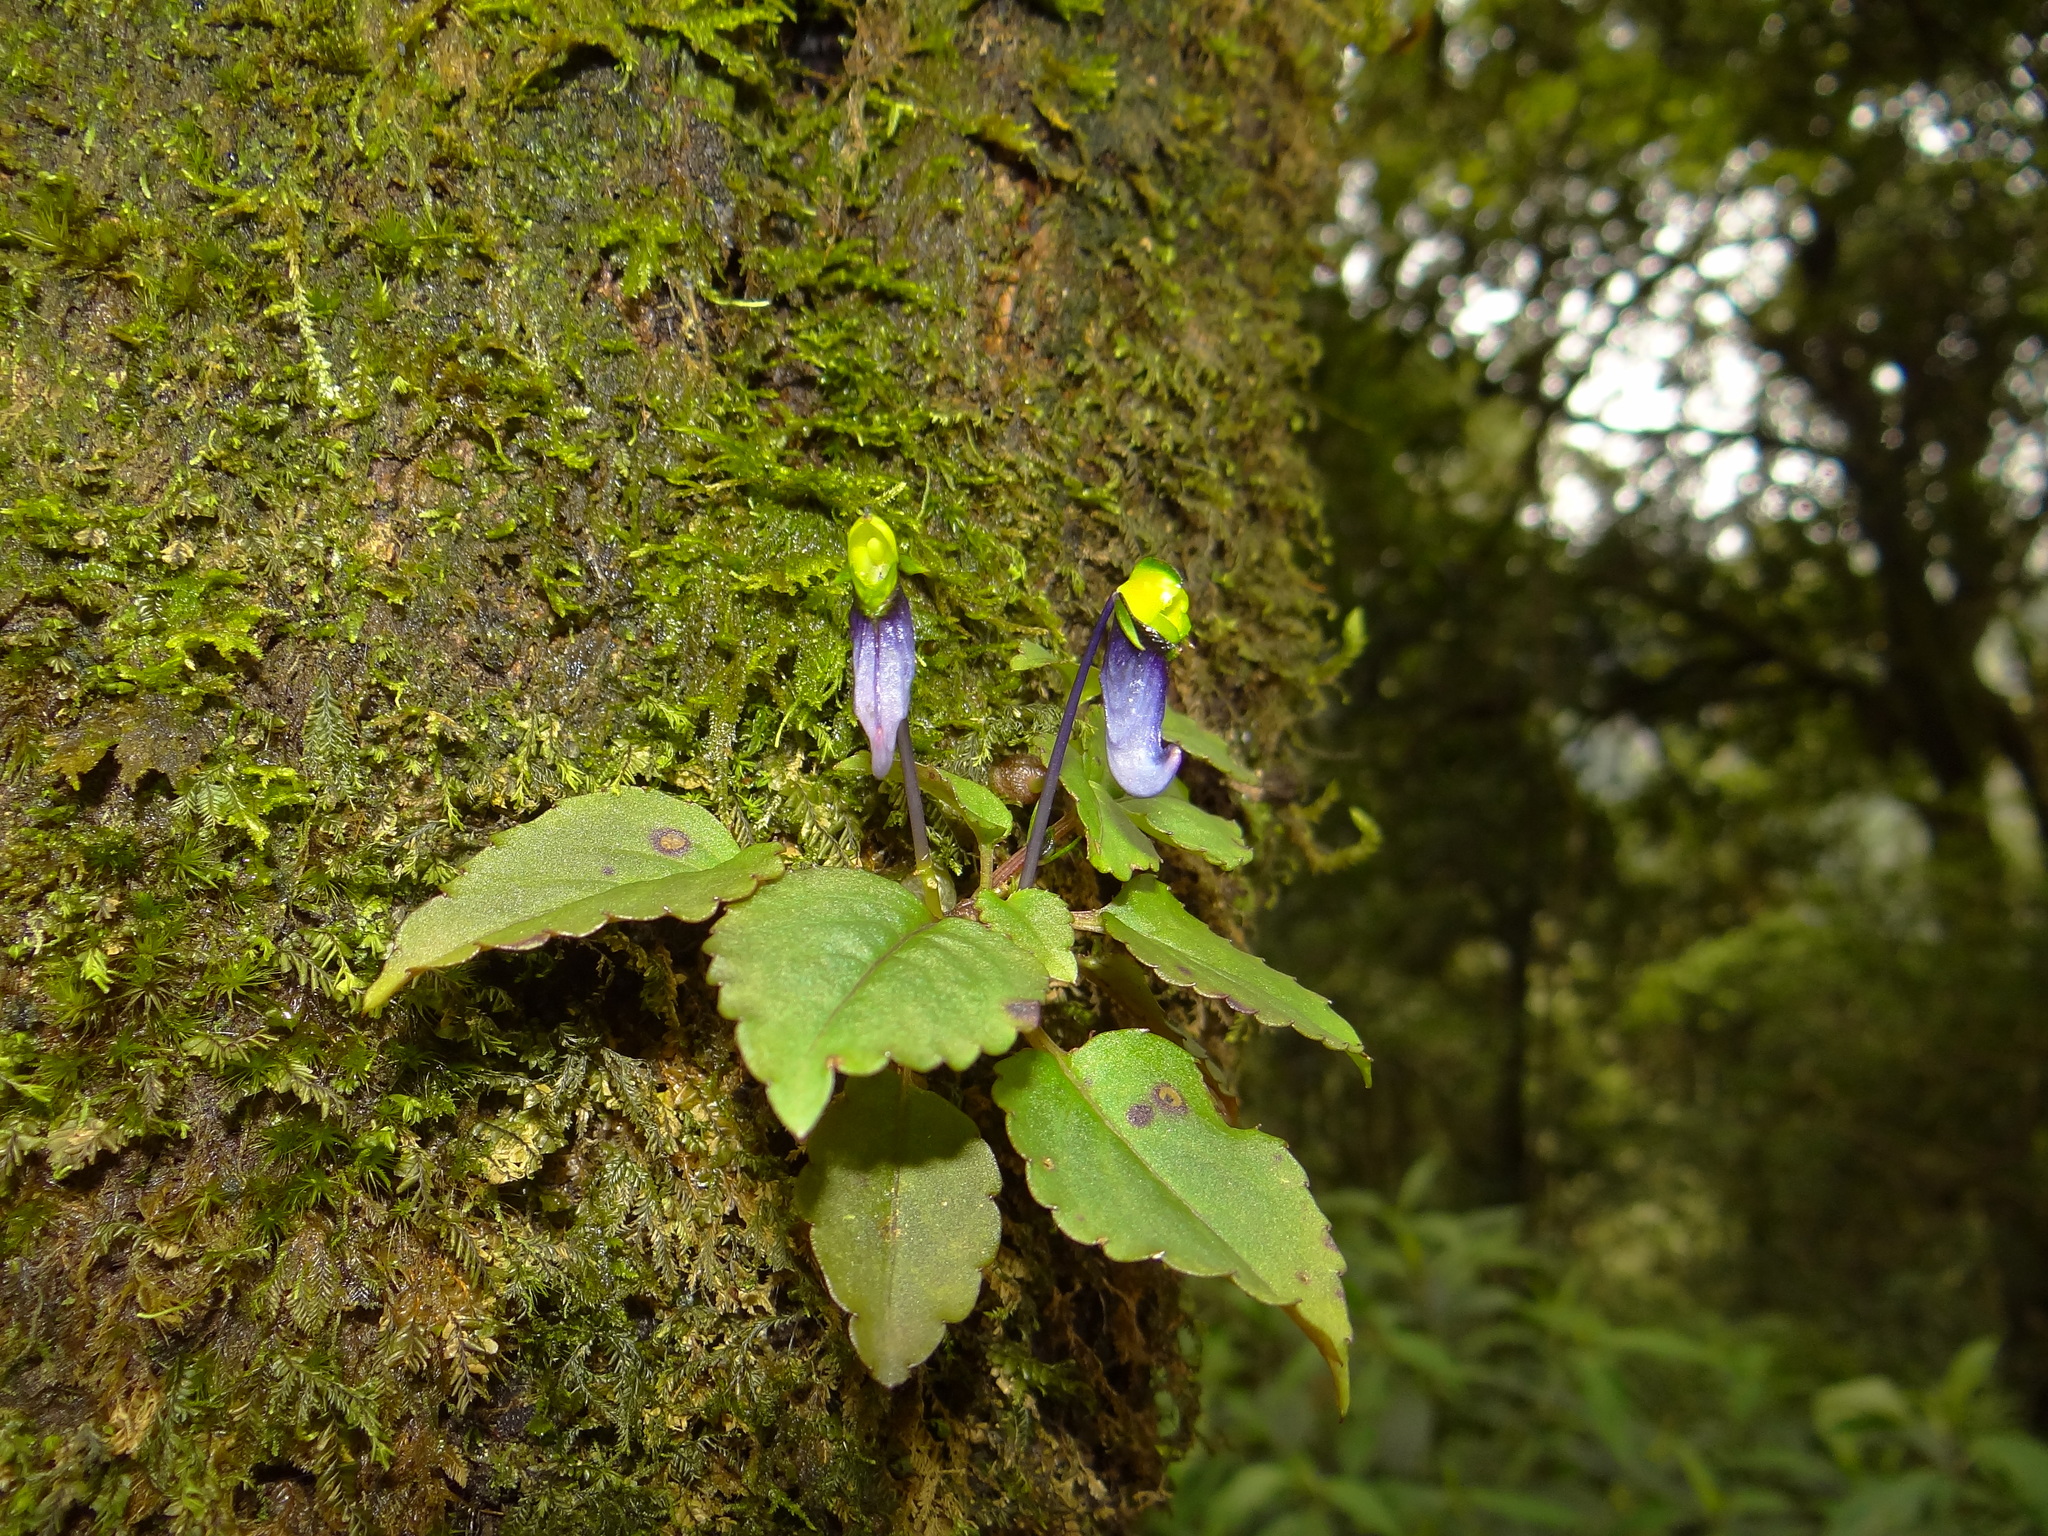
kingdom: Plantae
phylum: Tracheophyta
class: Magnoliopsida
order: Ericales
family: Balsaminaceae
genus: Impatiens
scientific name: Impatiens violacea
